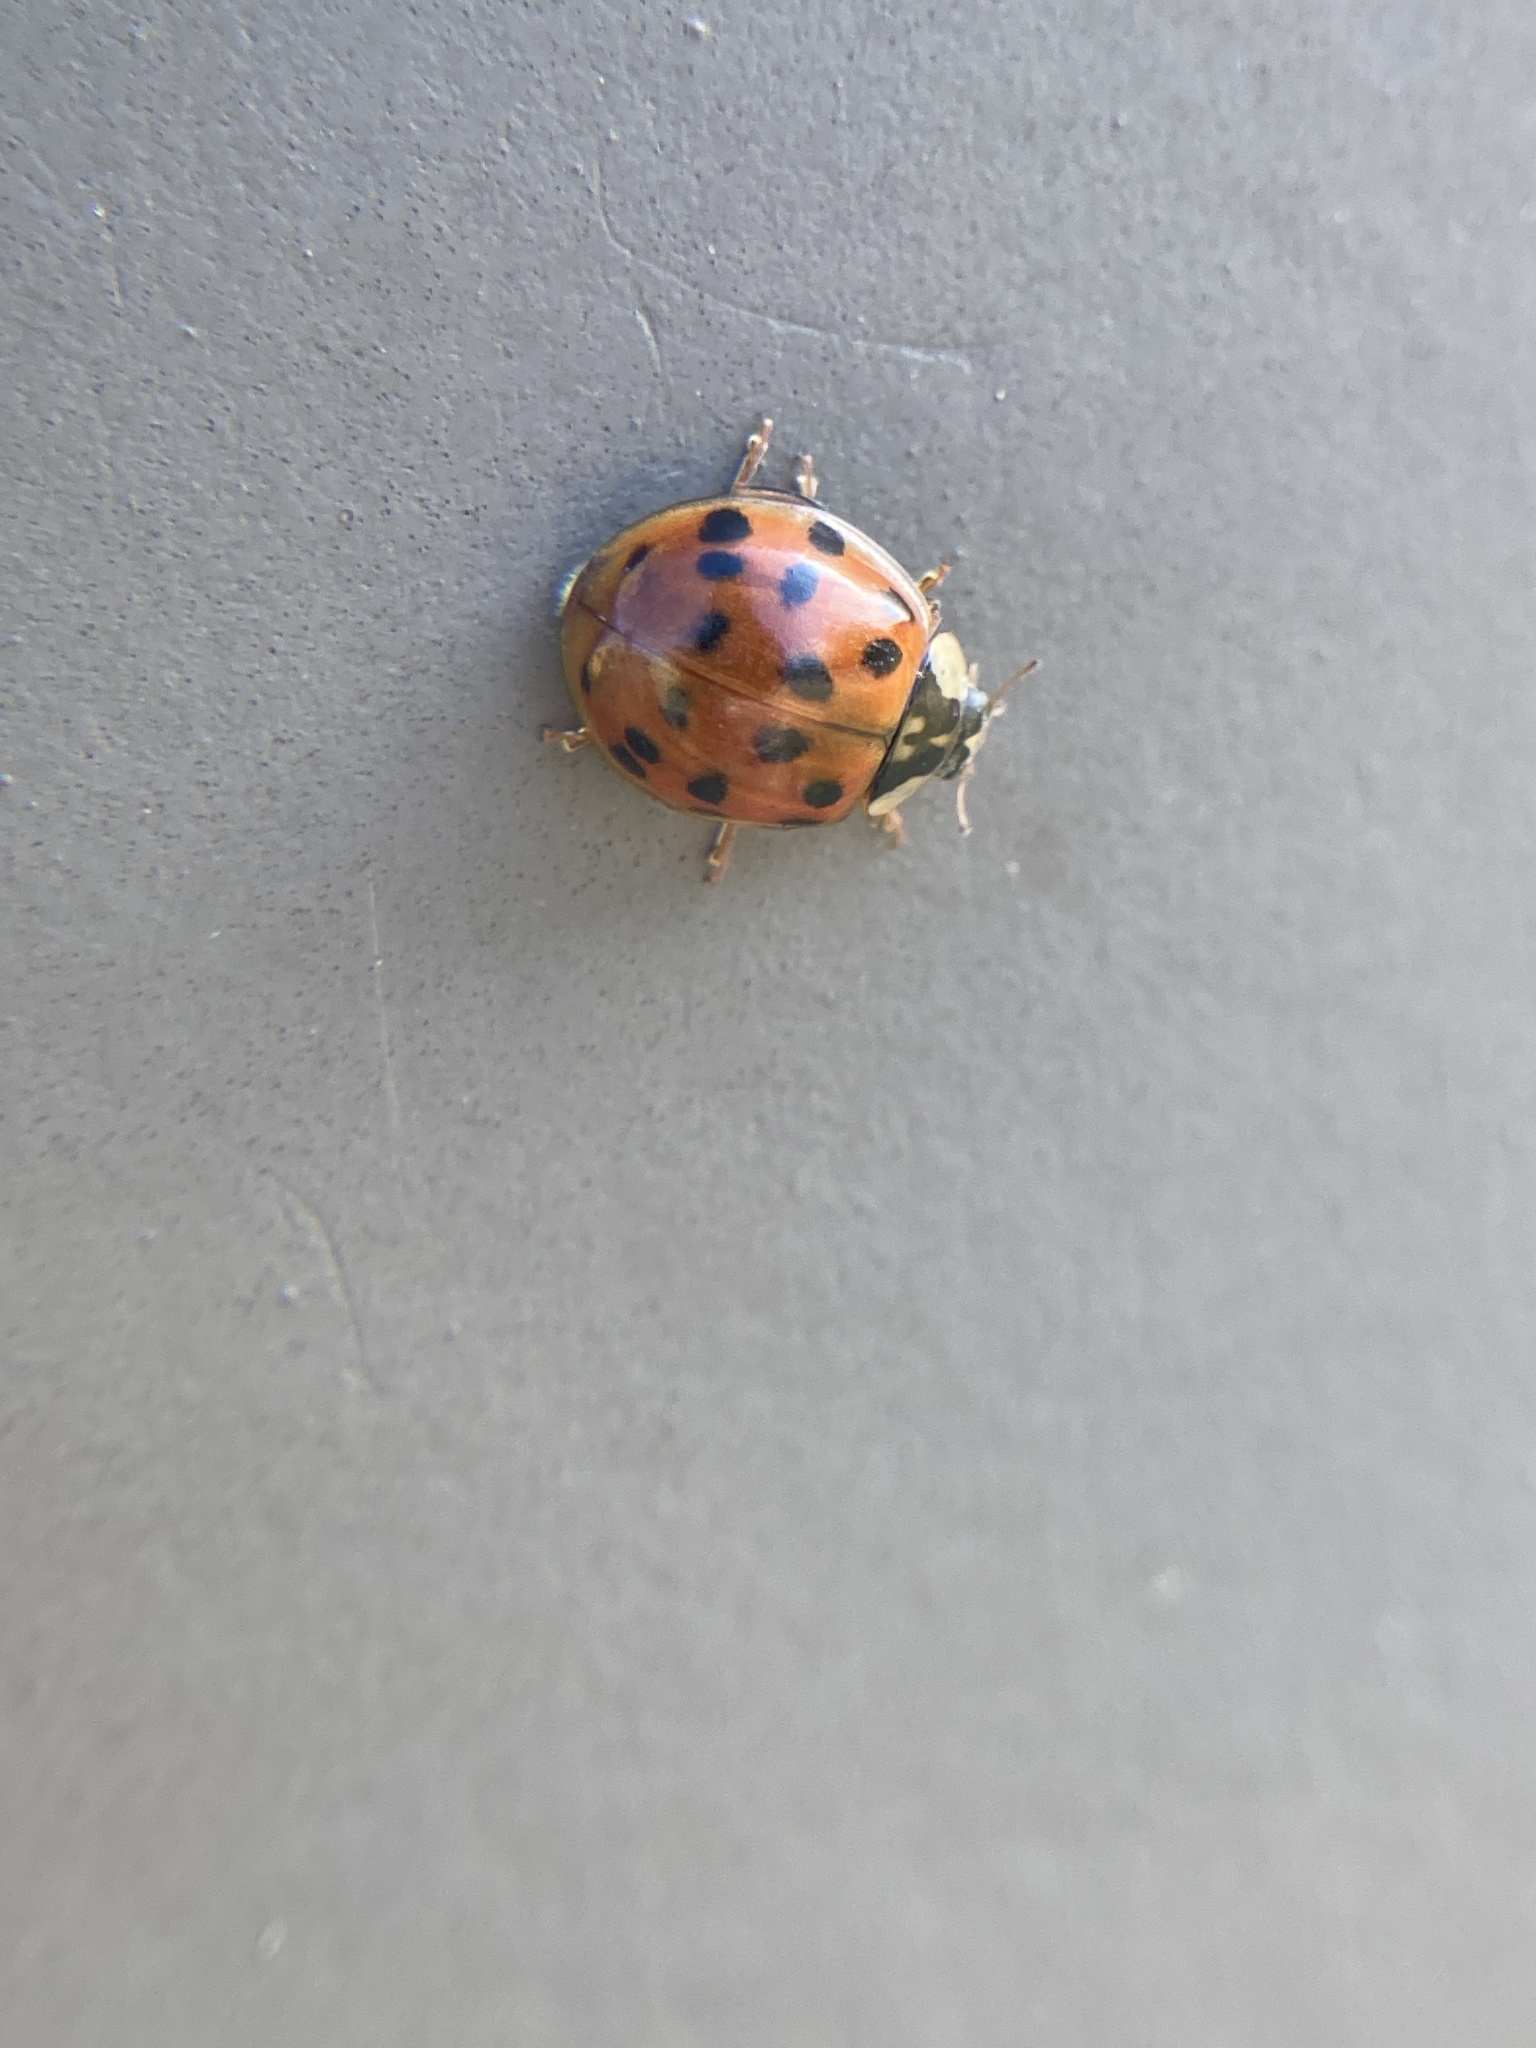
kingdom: Animalia
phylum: Arthropoda
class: Insecta
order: Coleoptera
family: Coccinellidae
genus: Harmonia
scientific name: Harmonia axyridis
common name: Harlequin ladybird
